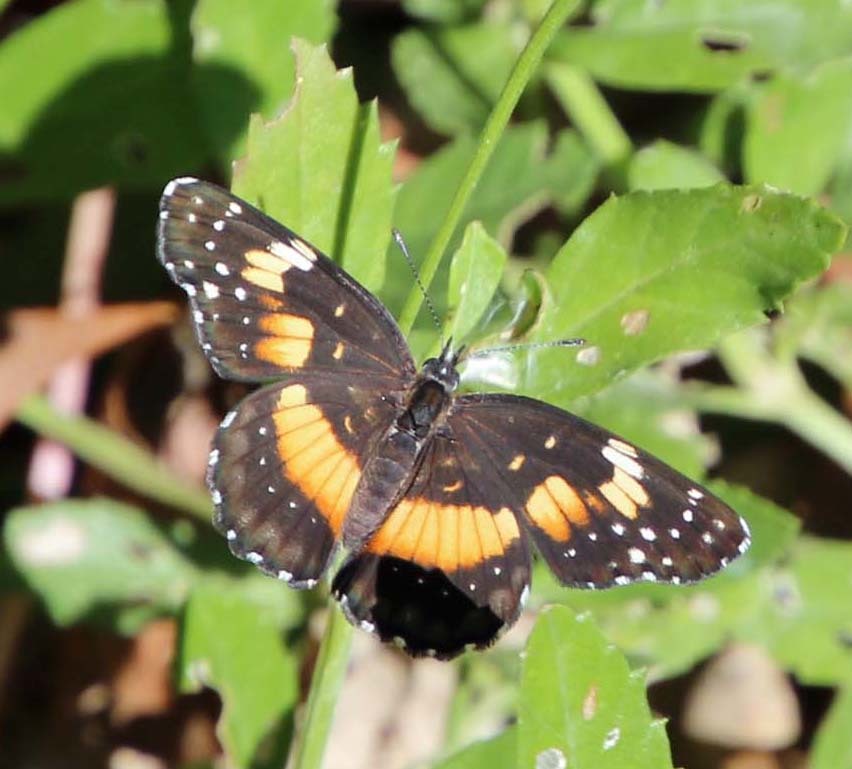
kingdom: Animalia
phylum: Arthropoda
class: Insecta
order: Lepidoptera
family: Nymphalidae
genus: Chlosyne
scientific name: Chlosyne lacinia
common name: Bordered patch
